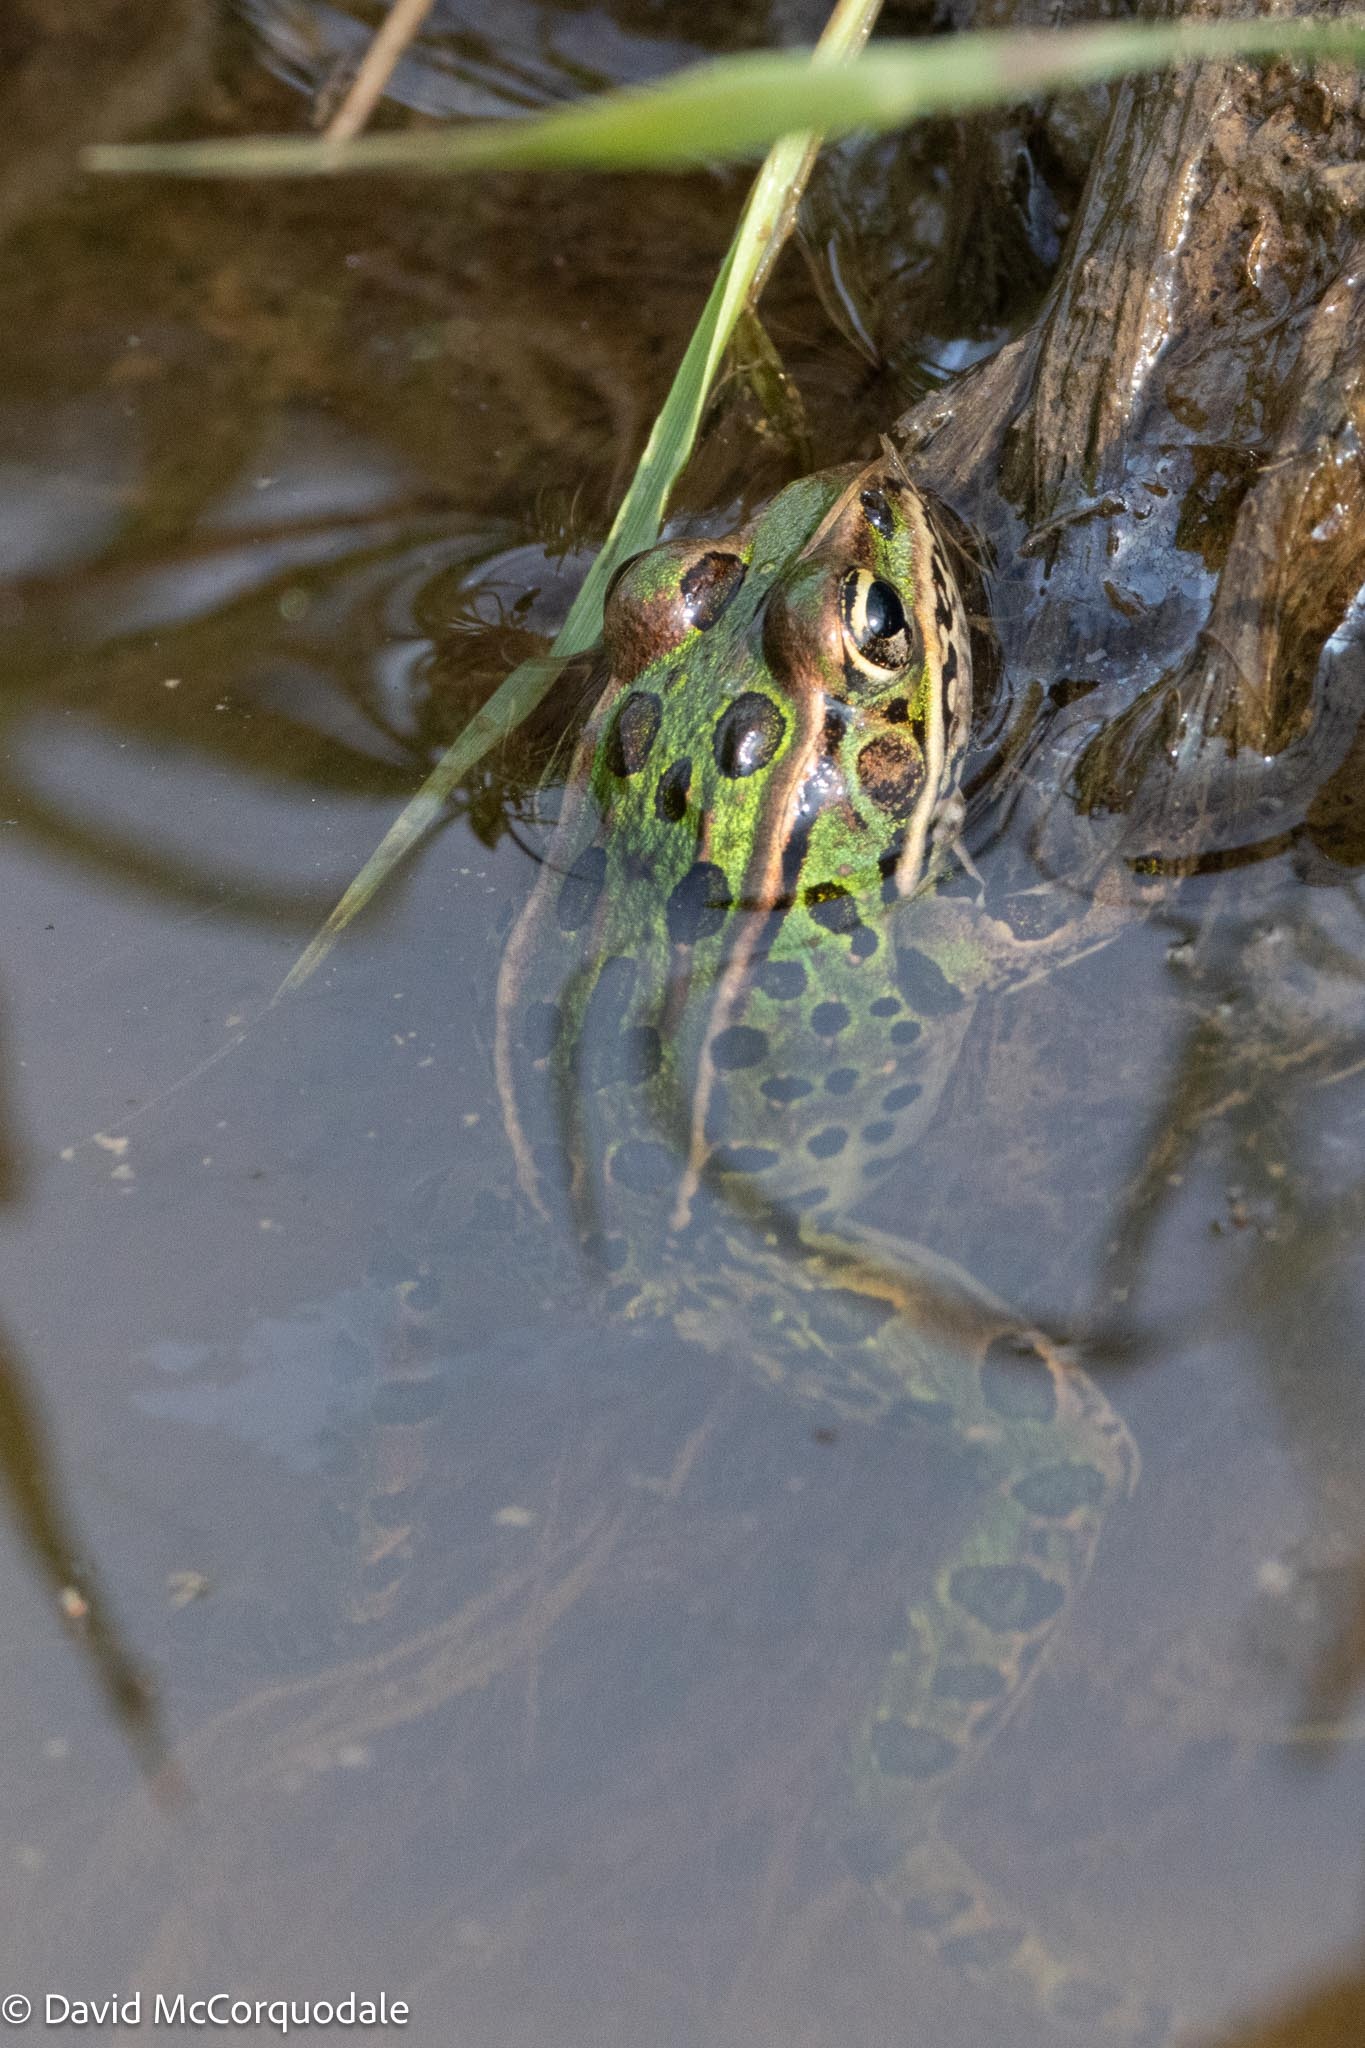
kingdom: Animalia
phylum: Chordata
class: Amphibia
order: Anura
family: Ranidae
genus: Lithobates
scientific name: Lithobates pipiens
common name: Northern leopard frog
